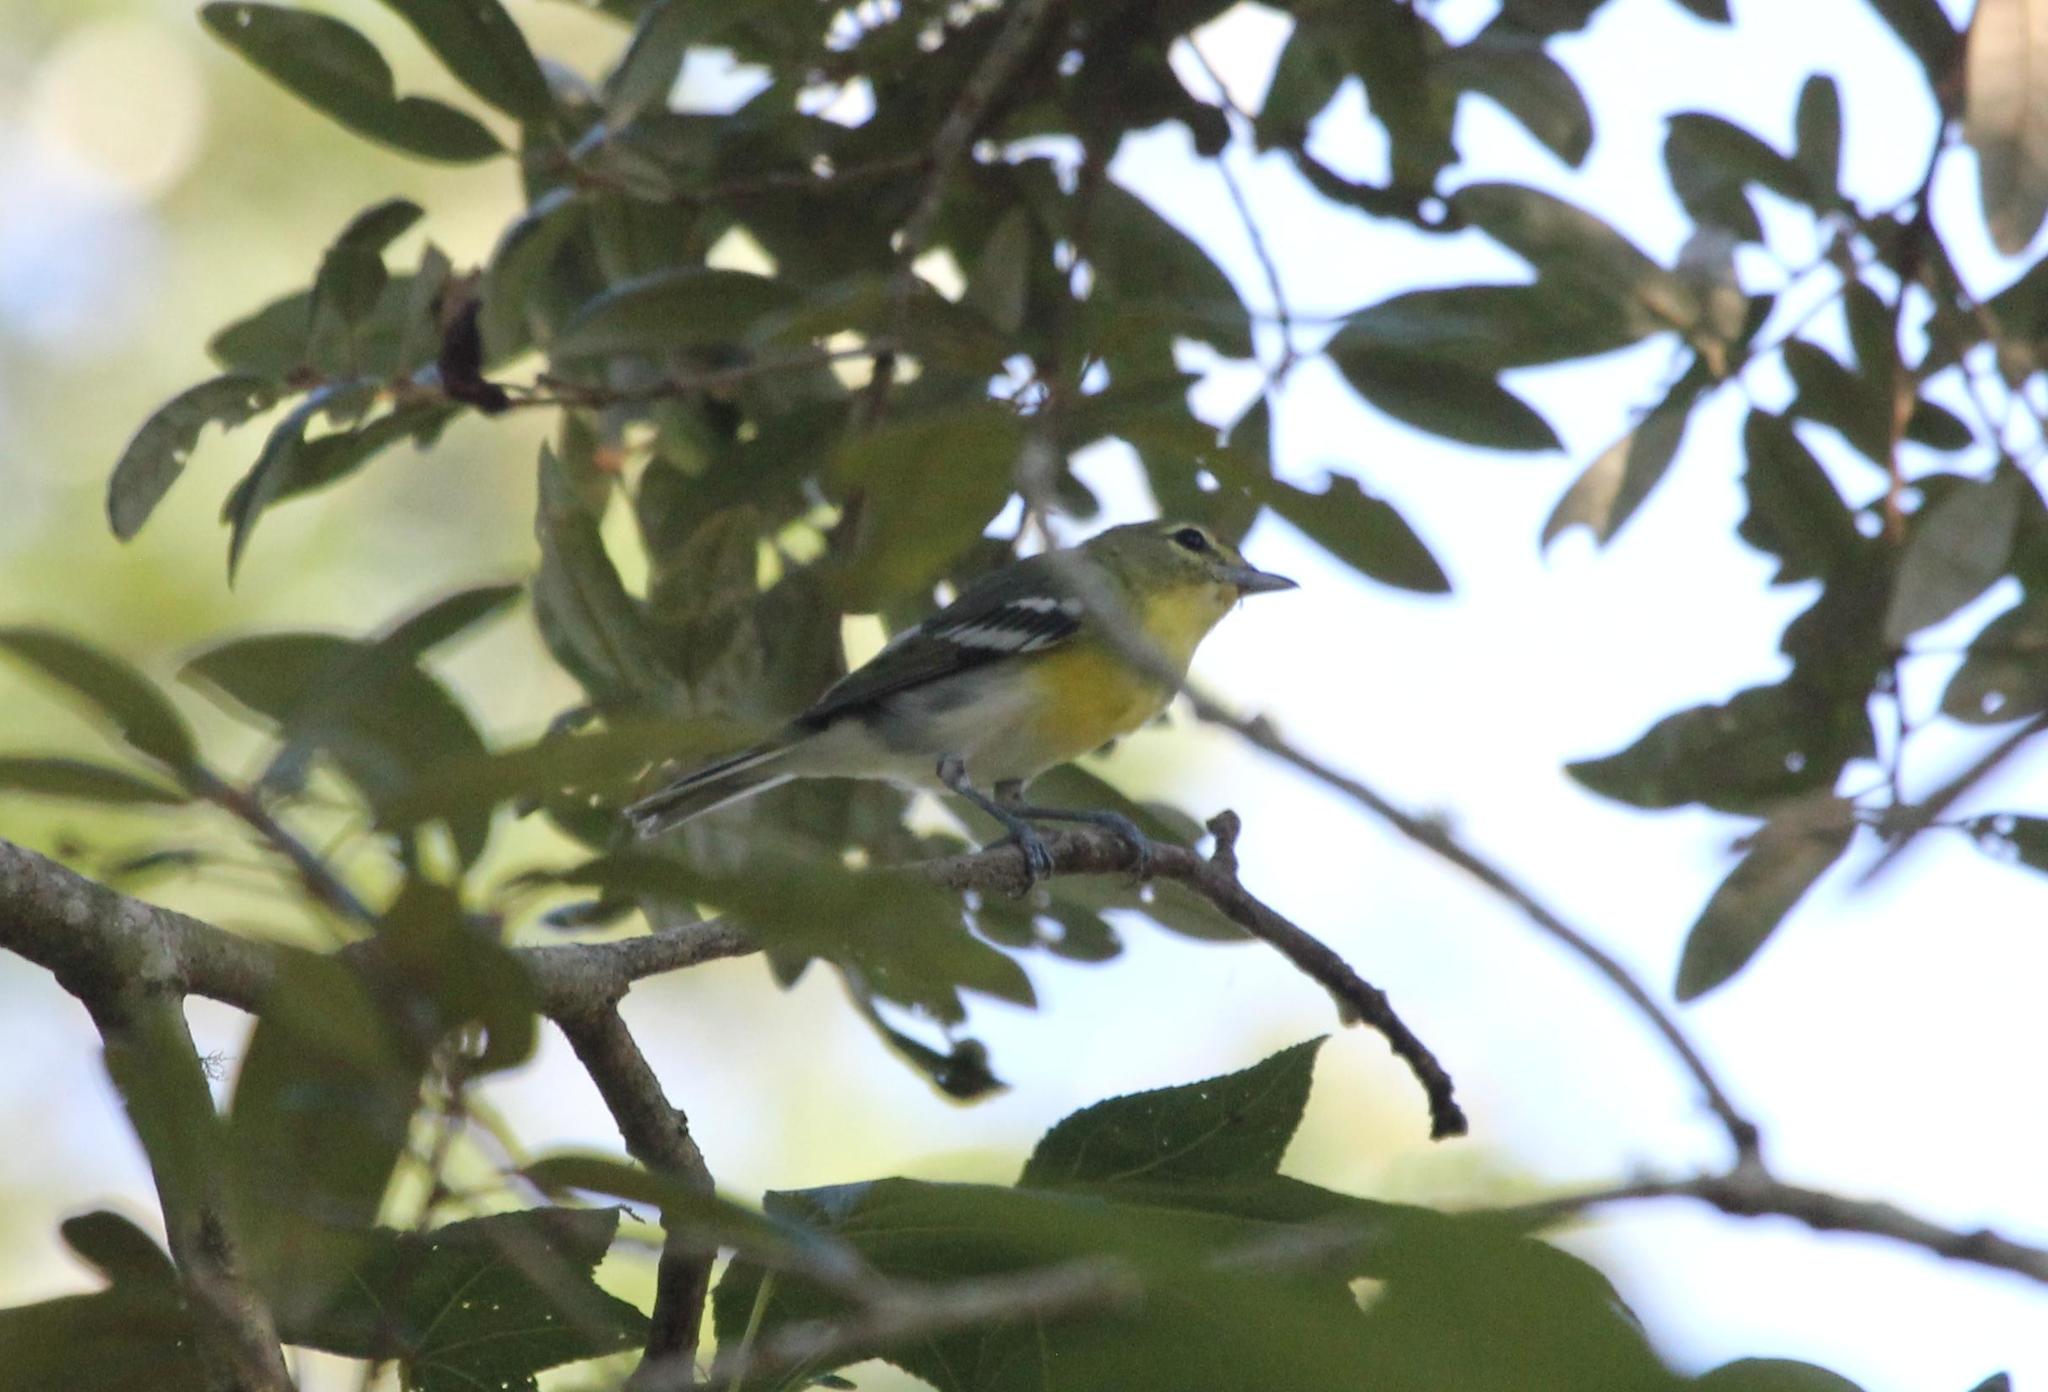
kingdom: Animalia
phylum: Chordata
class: Aves
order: Passeriformes
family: Vireonidae
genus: Vireo
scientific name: Vireo flavifrons
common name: Yellow-throated vireo
